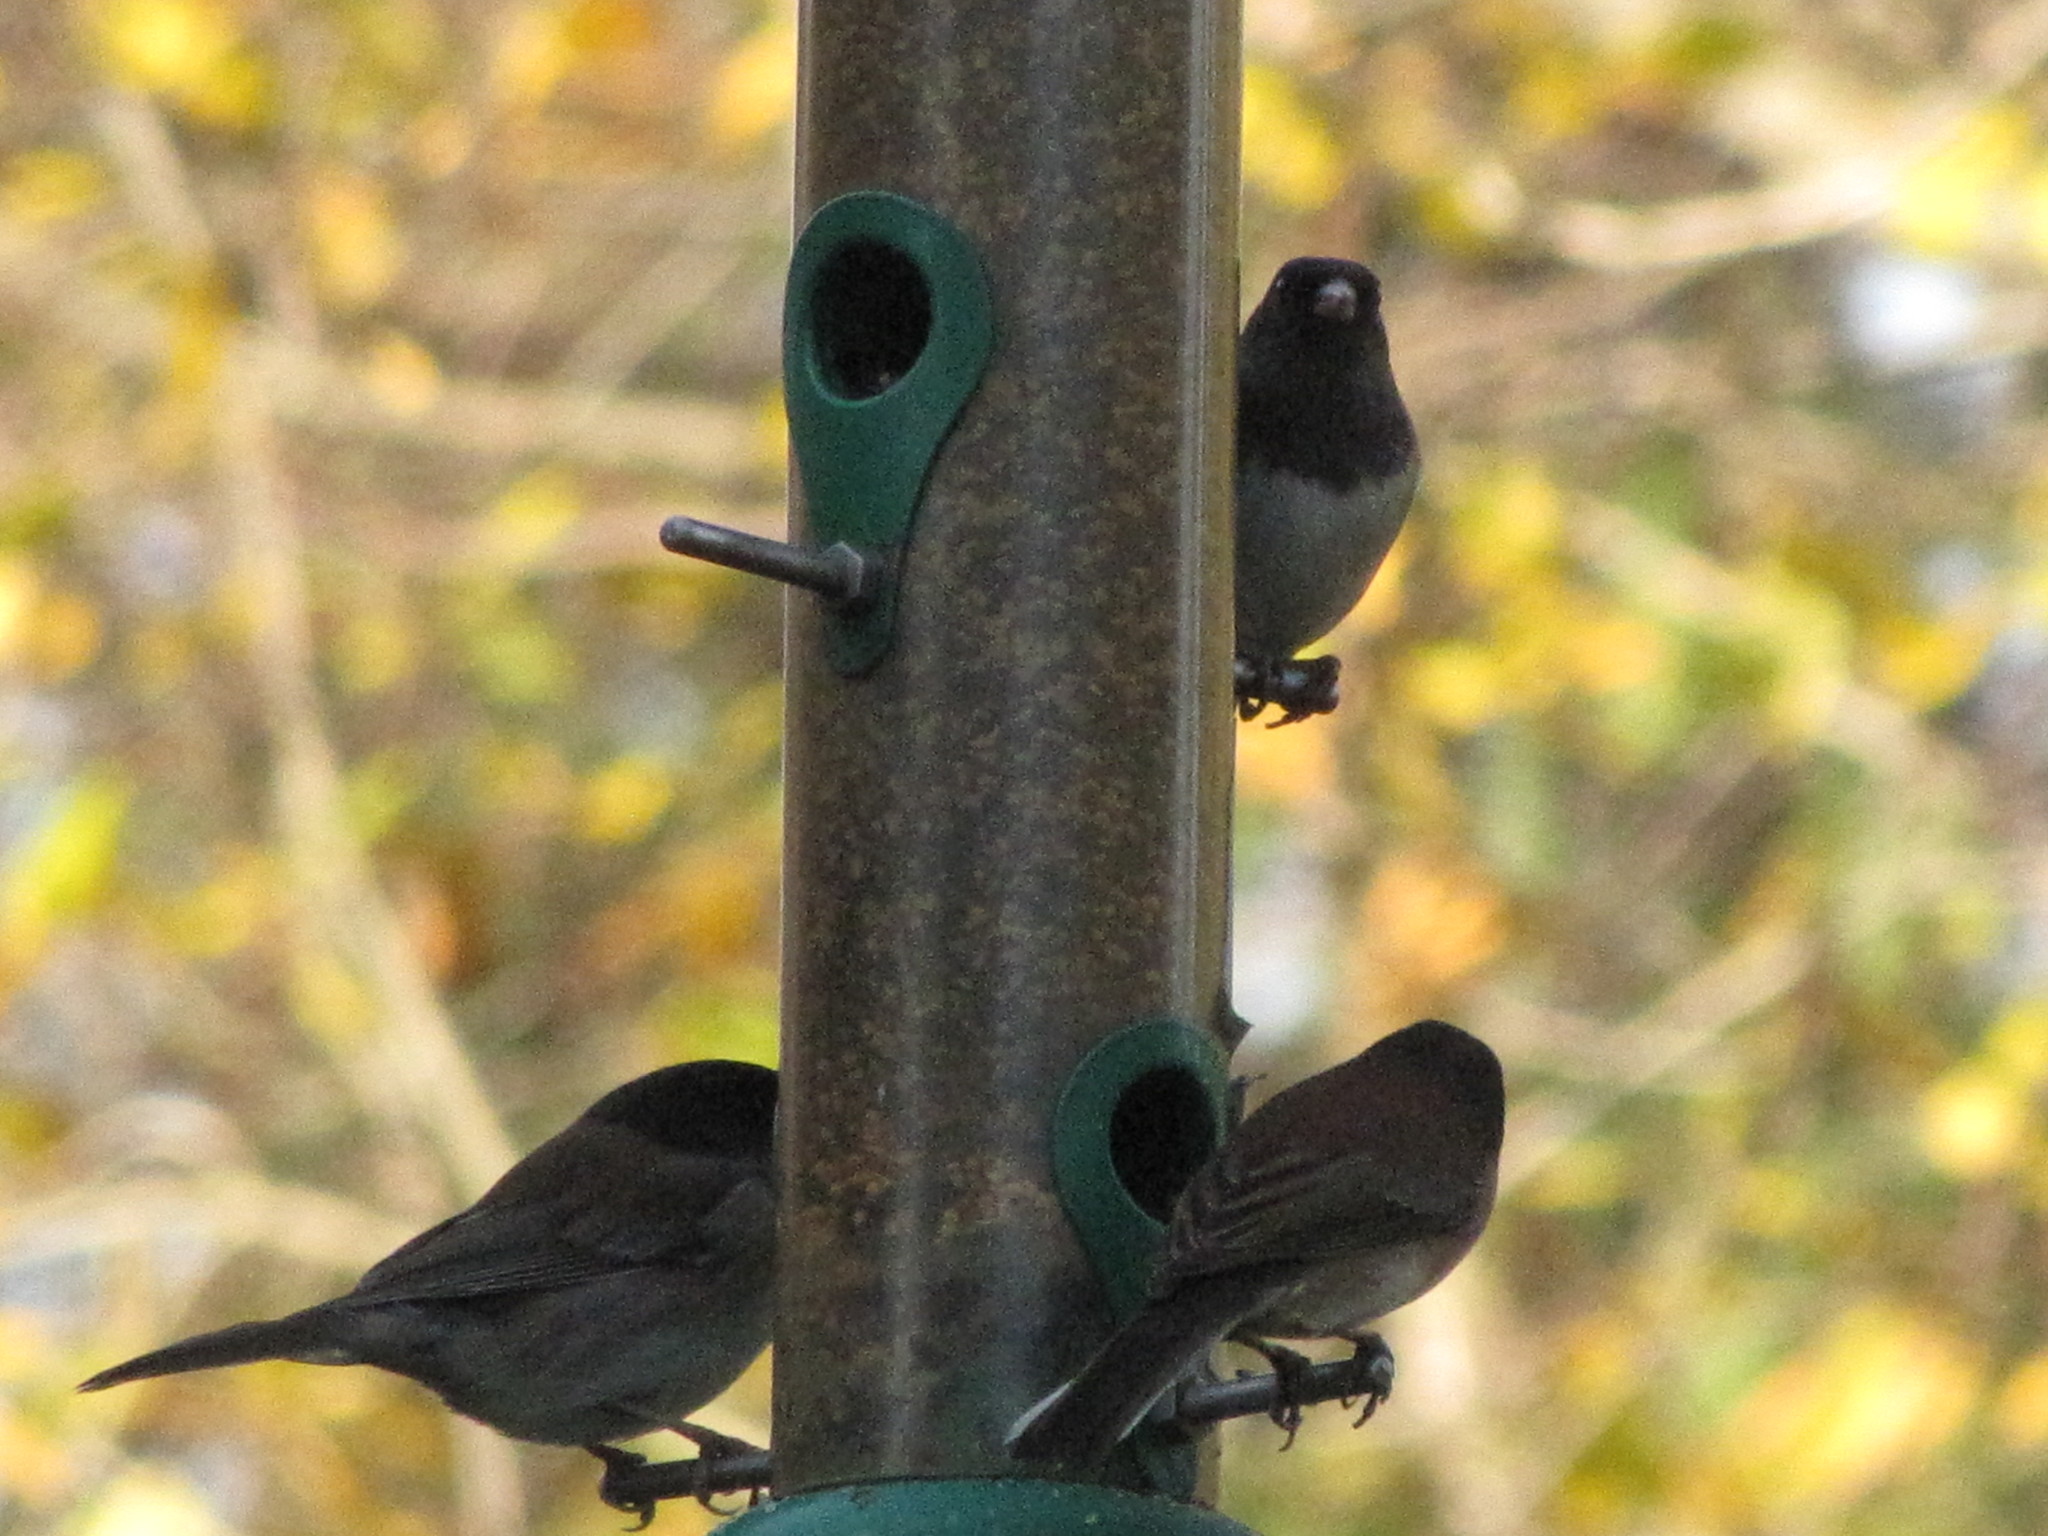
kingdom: Animalia
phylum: Chordata
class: Aves
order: Passeriformes
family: Passerellidae
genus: Junco
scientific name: Junco hyemalis
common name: Dark-eyed junco
